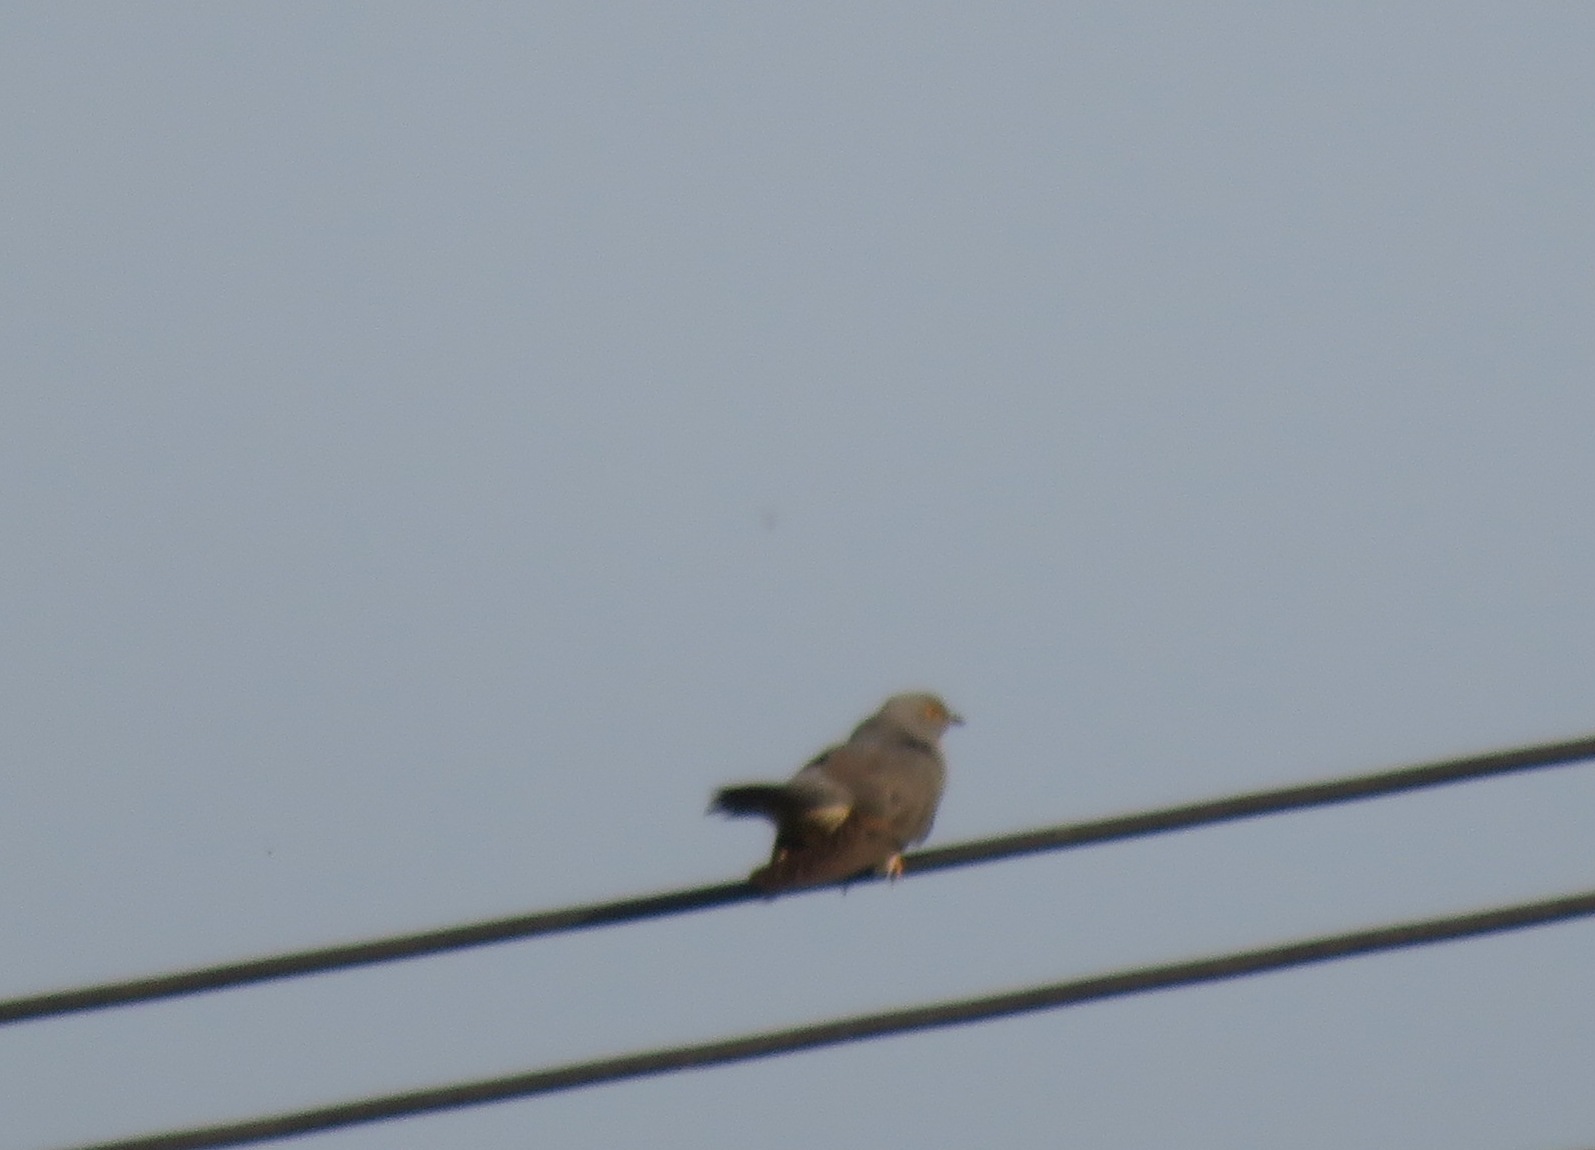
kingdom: Animalia
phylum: Chordata
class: Aves
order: Cuculiformes
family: Cuculidae
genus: Cuculus
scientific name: Cuculus canorus
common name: Common cuckoo
